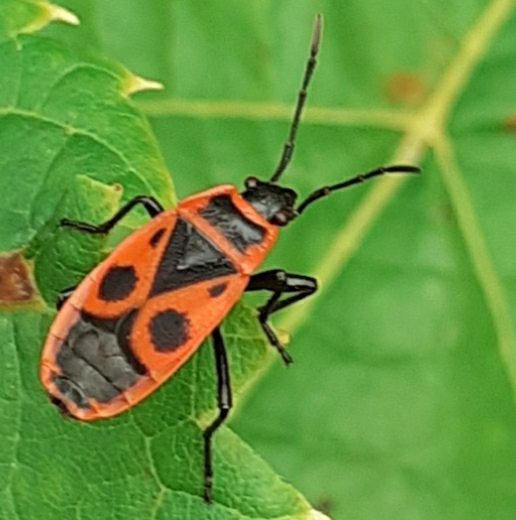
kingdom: Animalia
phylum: Arthropoda
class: Insecta
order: Hemiptera
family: Pyrrhocoridae
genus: Pyrrhocoris
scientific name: Pyrrhocoris apterus
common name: Firebug
